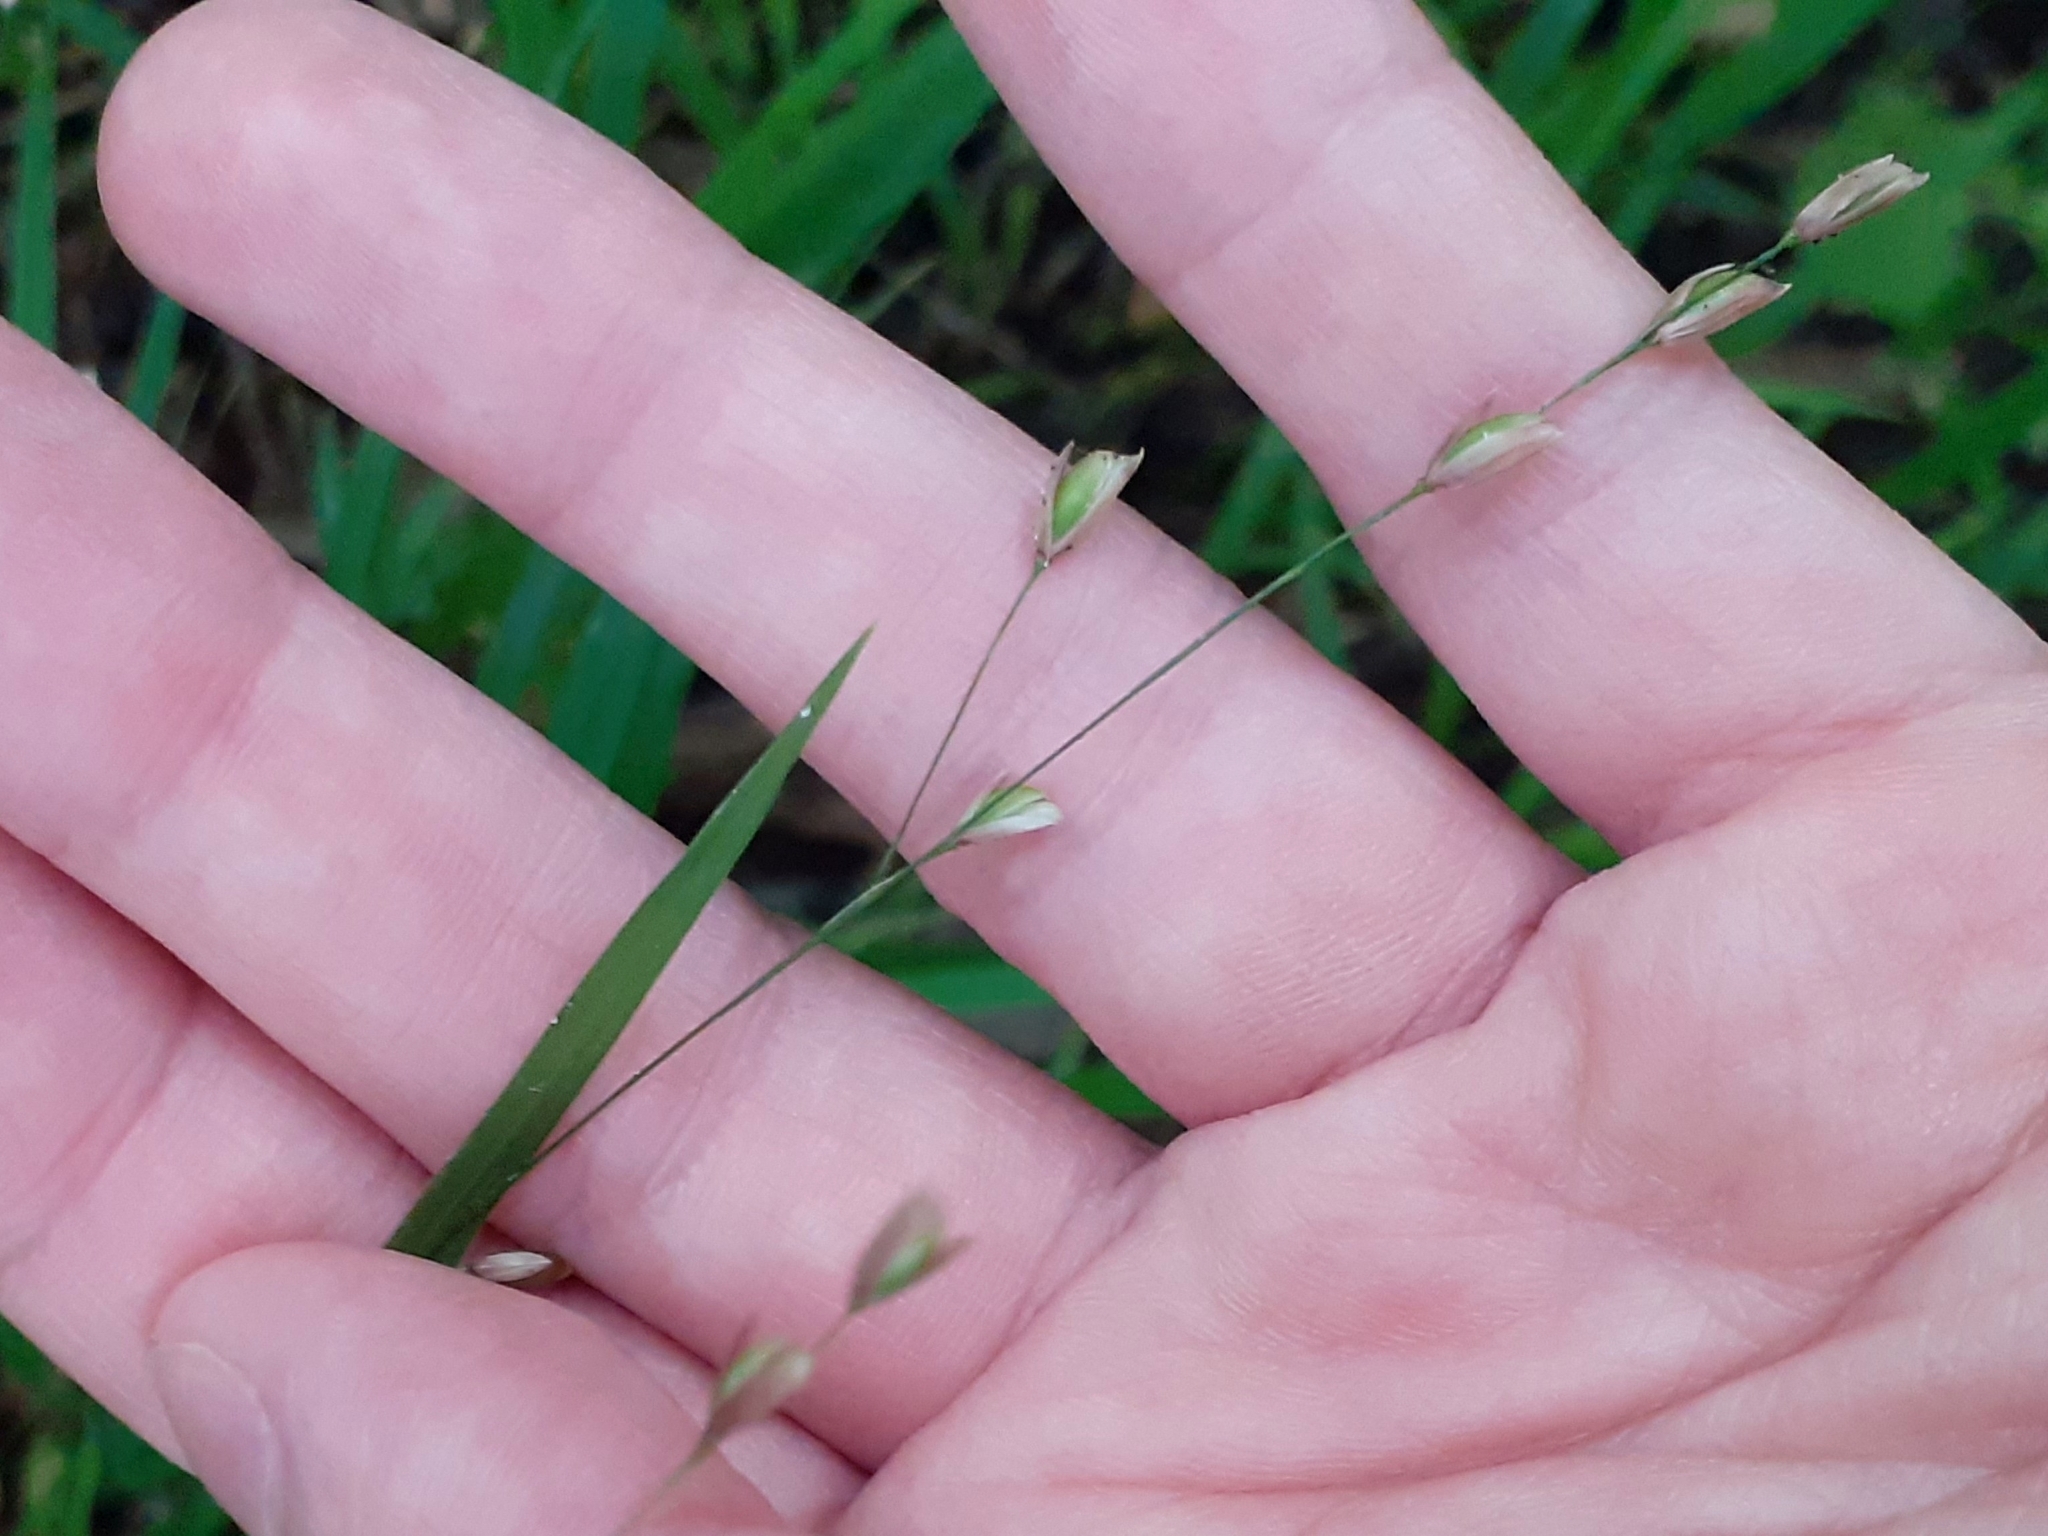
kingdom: Plantae
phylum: Tracheophyta
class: Liliopsida
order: Poales
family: Poaceae
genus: Melica
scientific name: Melica uniflora
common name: Wood melick
